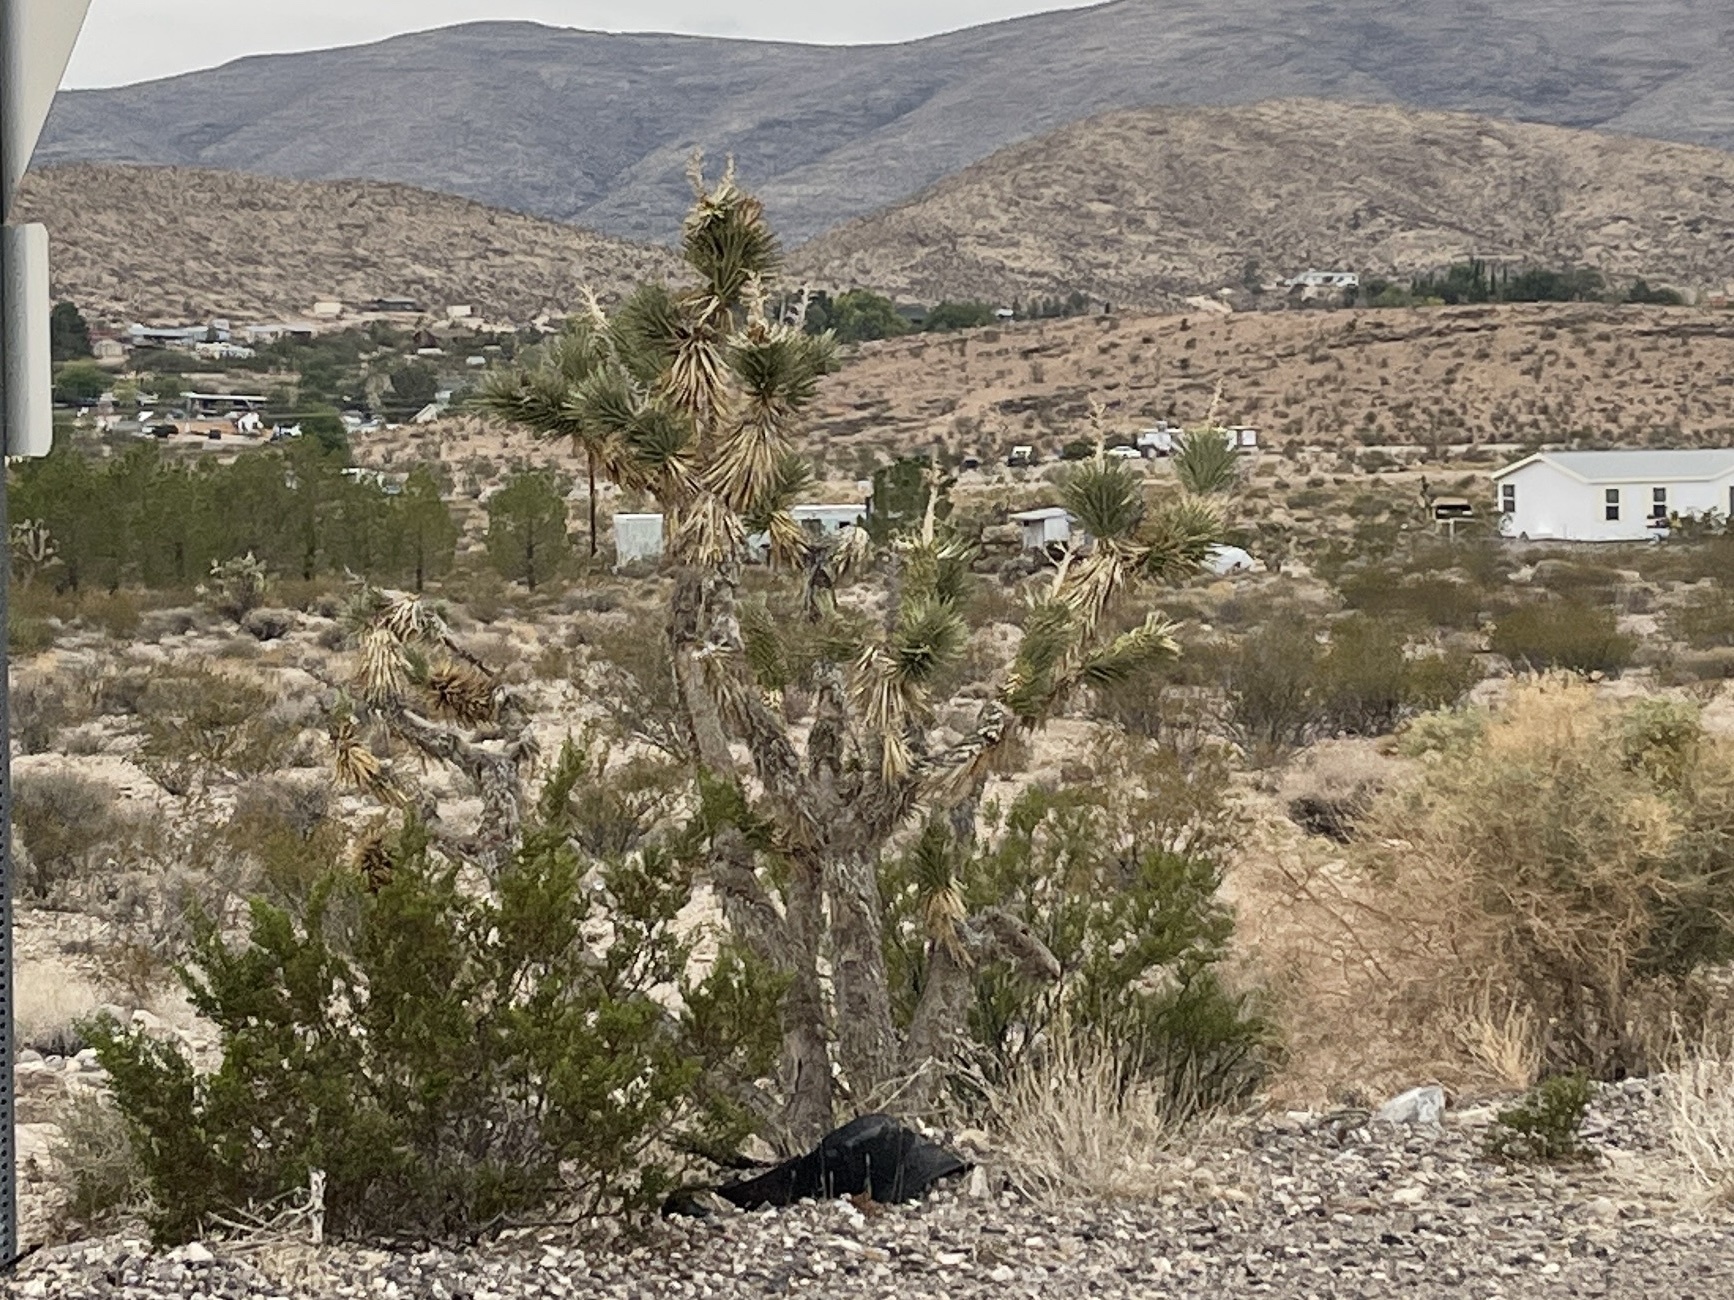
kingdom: Plantae
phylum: Tracheophyta
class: Liliopsida
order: Asparagales
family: Asparagaceae
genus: Yucca
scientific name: Yucca brevifolia
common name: Joshua tree
